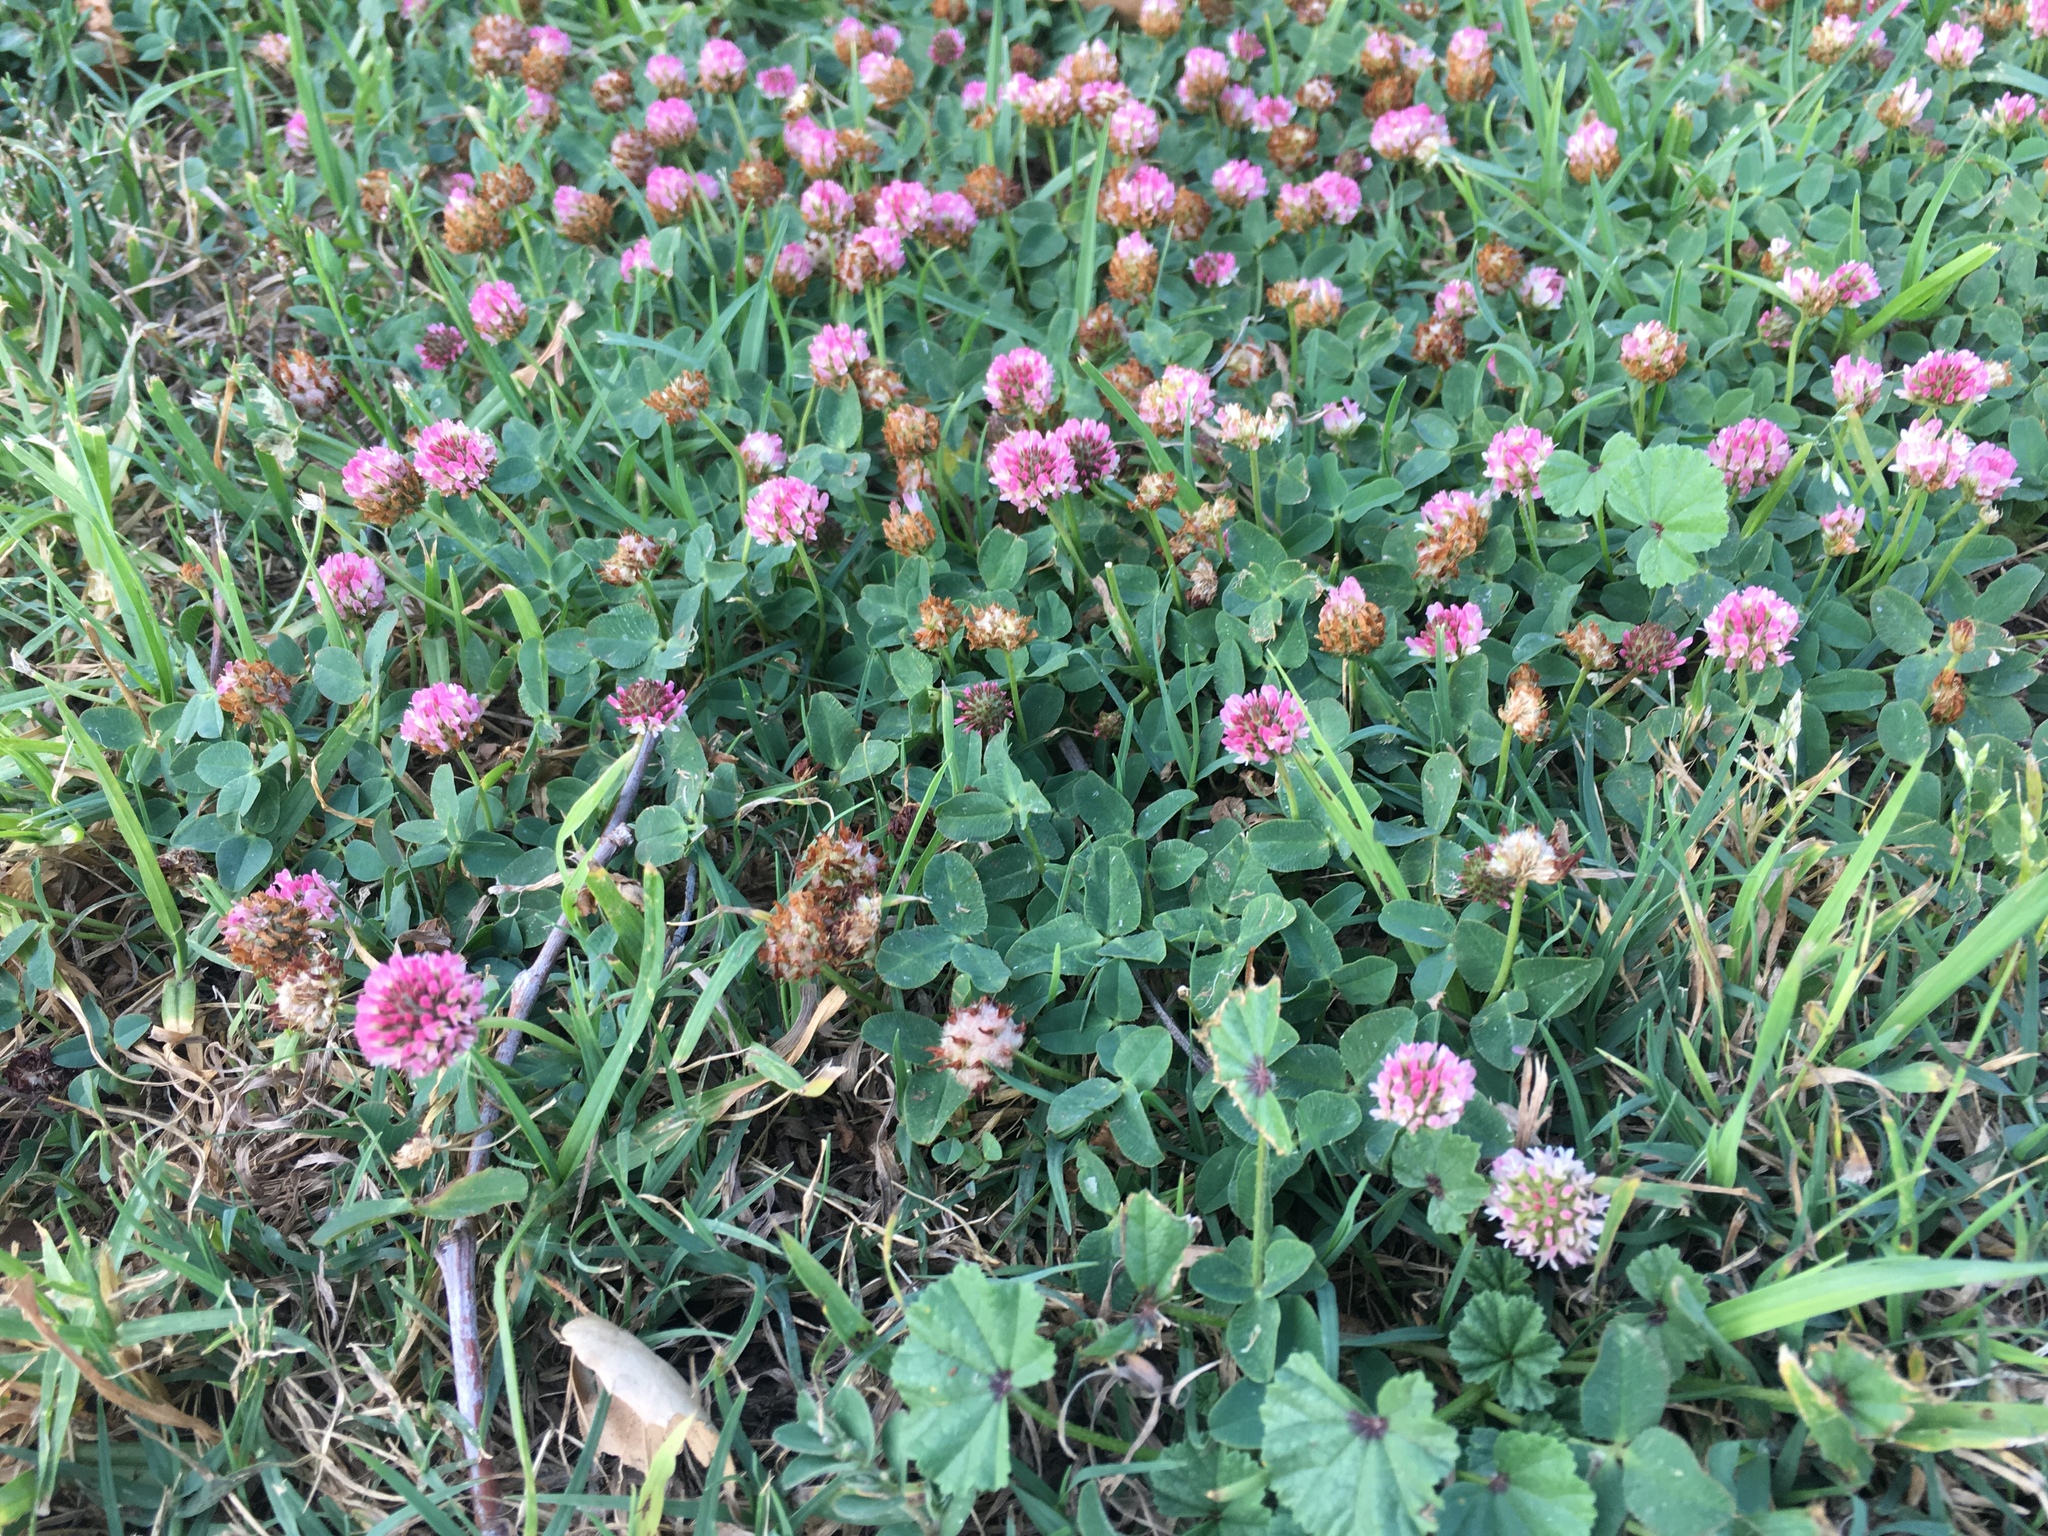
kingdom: Plantae
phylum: Tracheophyta
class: Magnoliopsida
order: Fabales
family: Fabaceae
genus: Trifolium
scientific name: Trifolium fragiferum
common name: Strawberry clover
